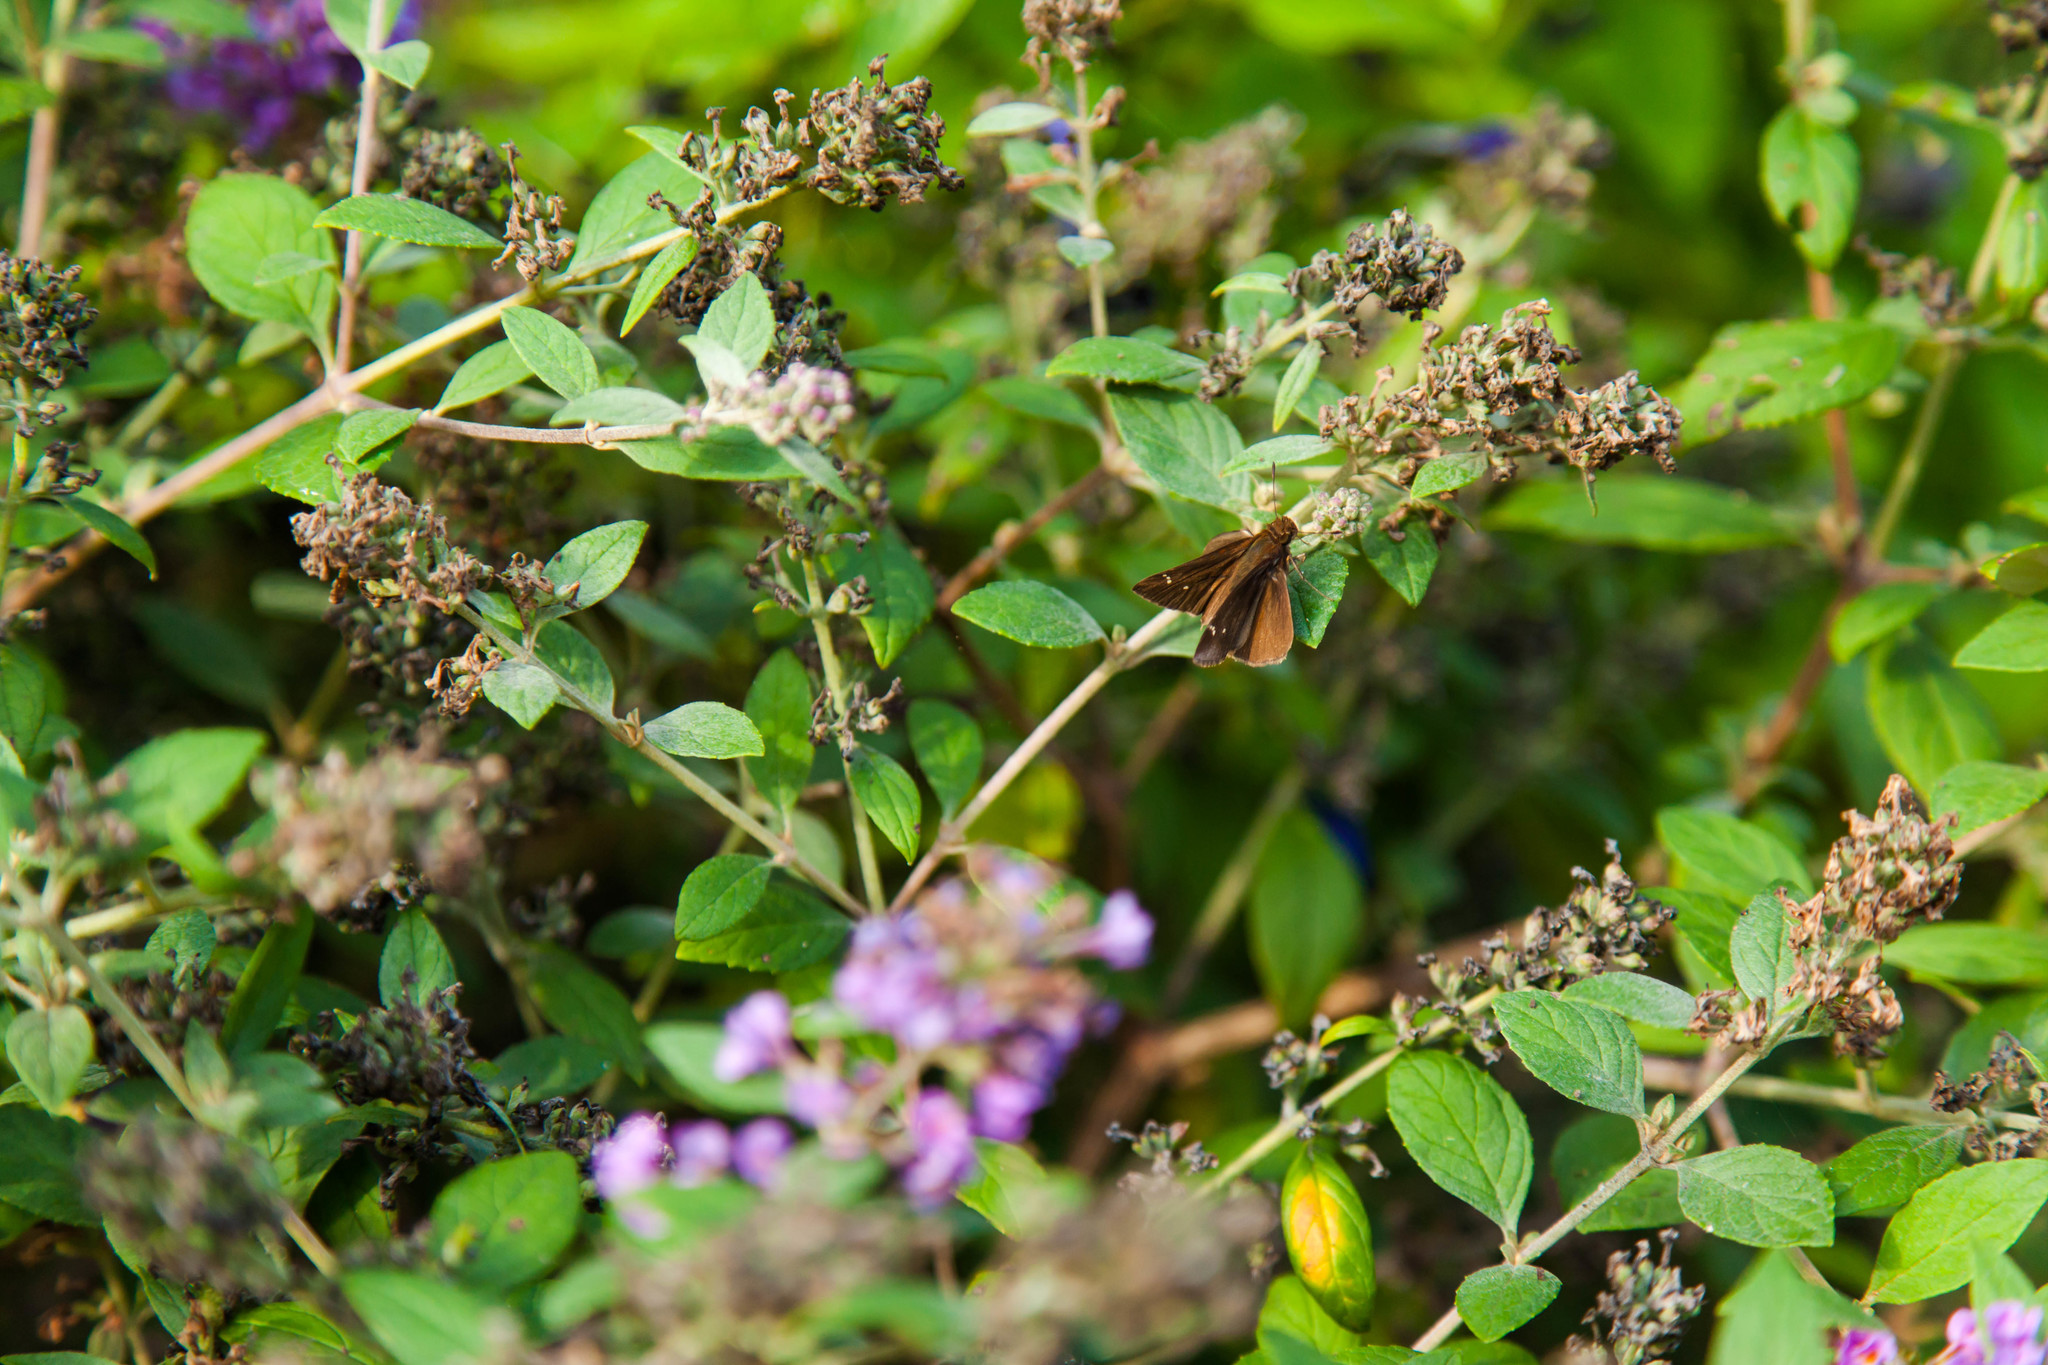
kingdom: Animalia
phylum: Arthropoda
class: Insecta
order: Lepidoptera
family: Hesperiidae
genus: Lerema
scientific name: Lerema accius
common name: Clouded skipper
